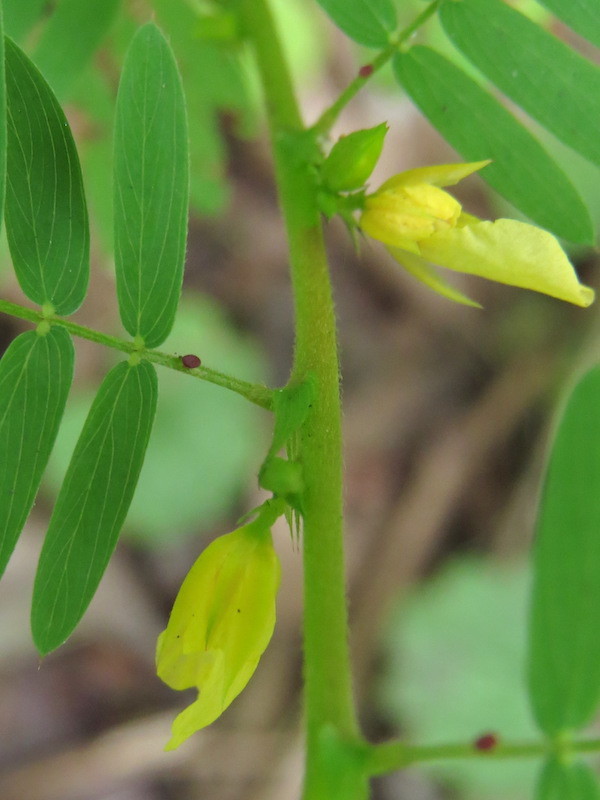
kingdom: Plantae
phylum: Tracheophyta
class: Magnoliopsida
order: Fabales
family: Fabaceae
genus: Chamaecrista
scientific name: Chamaecrista nictitans
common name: Sensitive cassia
